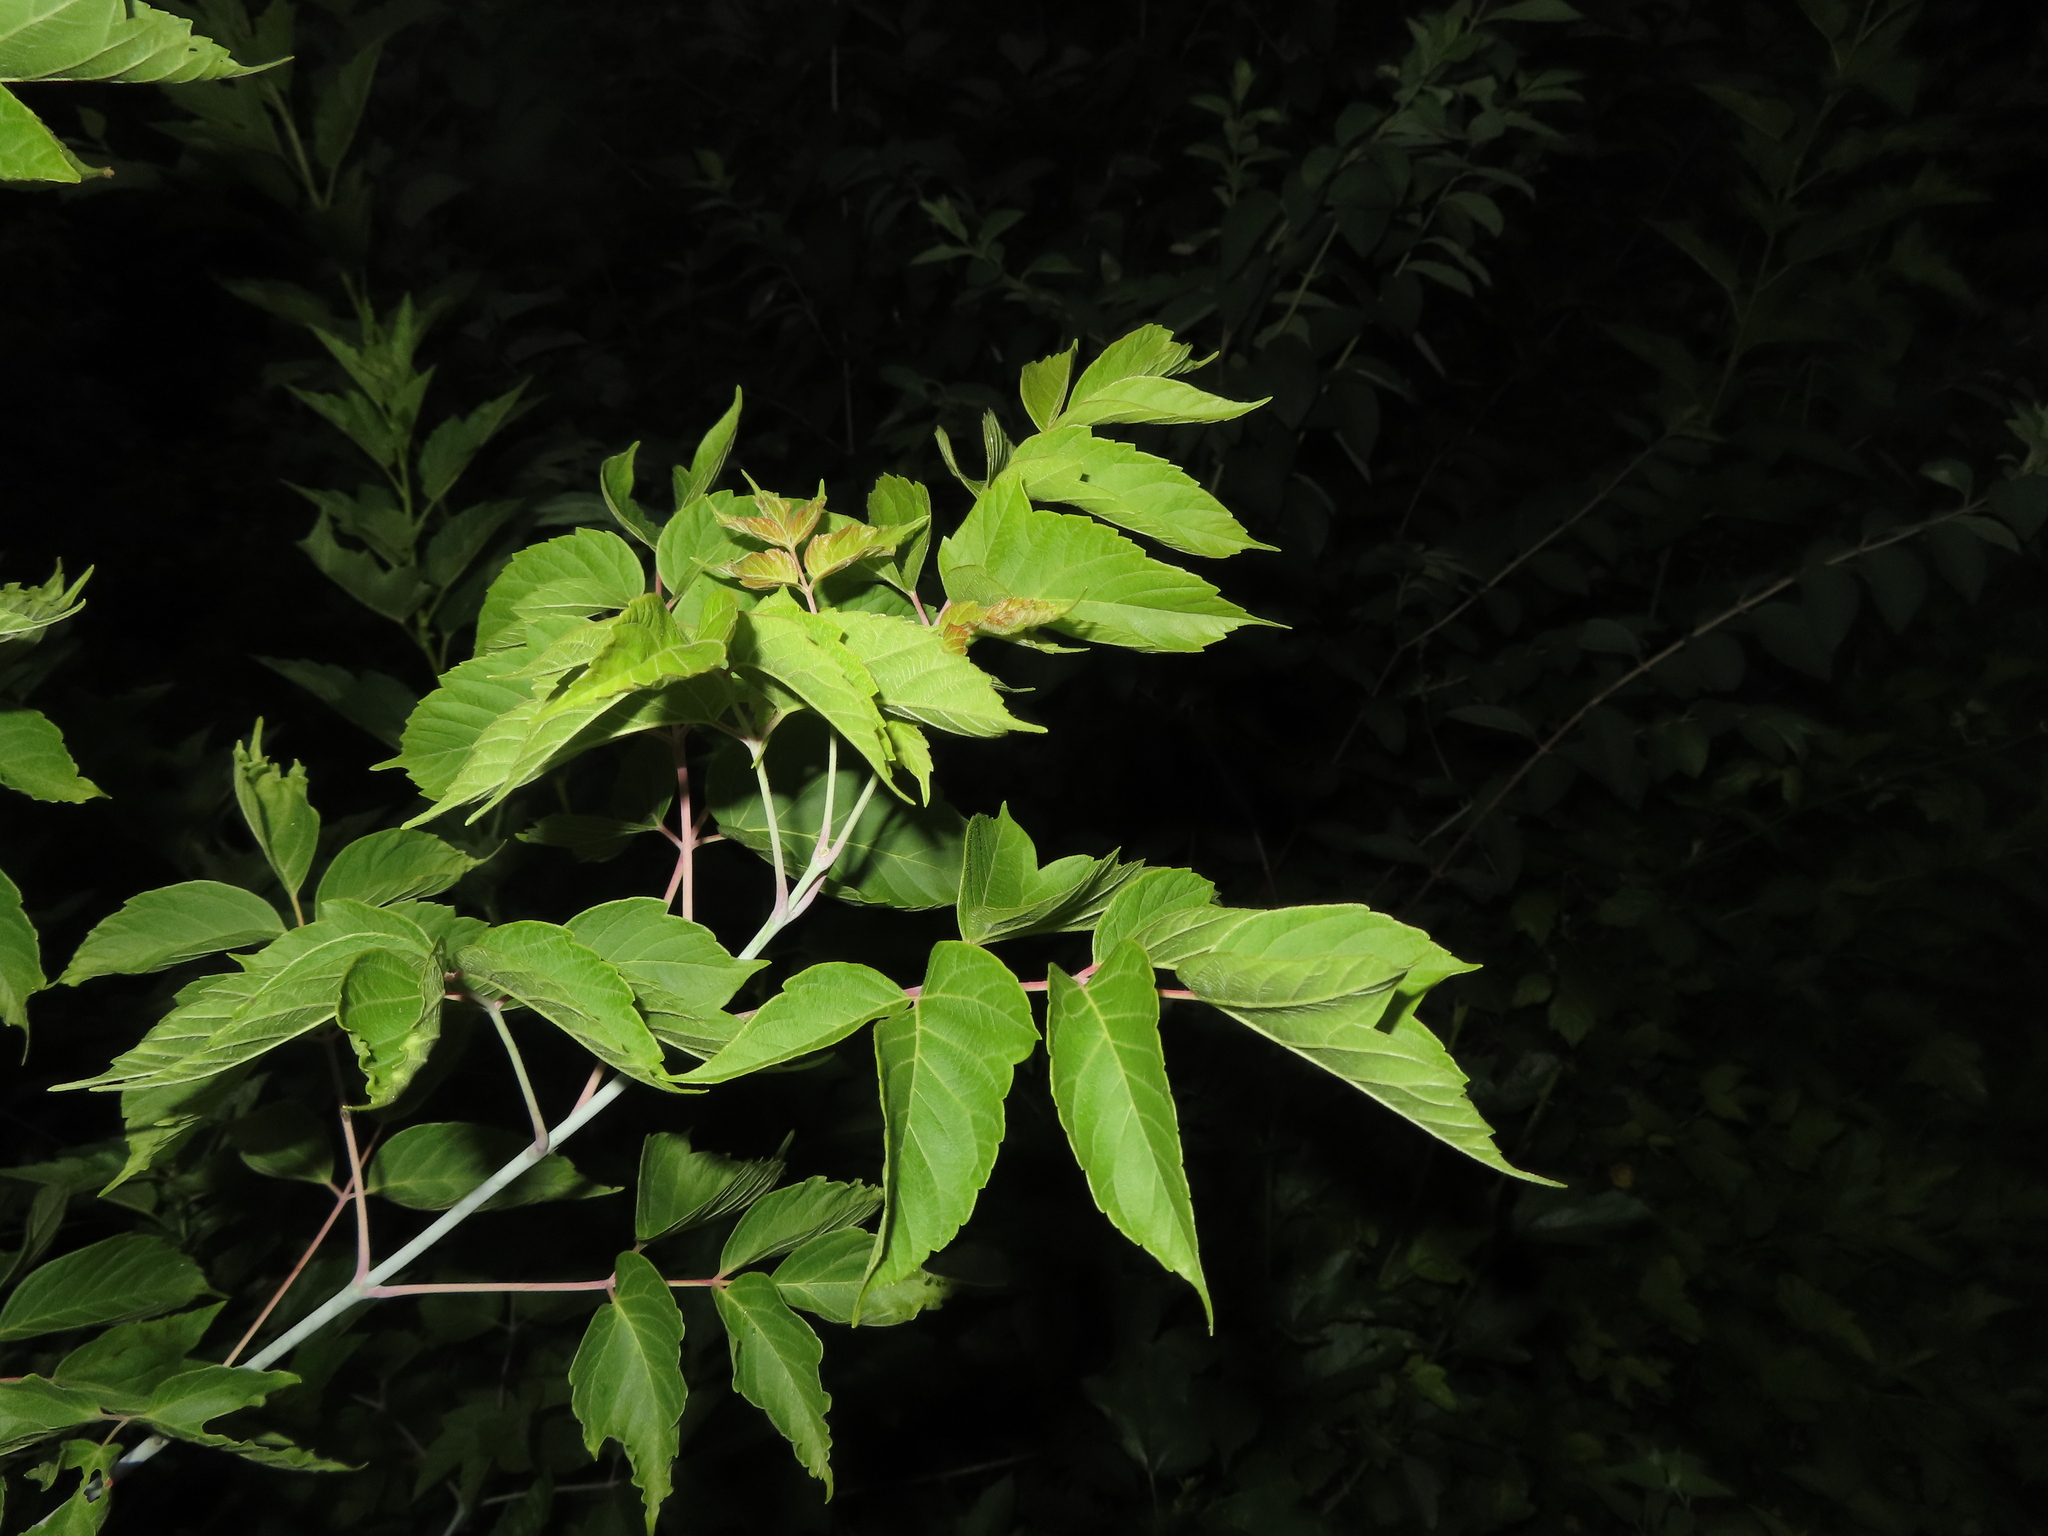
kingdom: Plantae
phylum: Tracheophyta
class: Magnoliopsida
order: Sapindales
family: Sapindaceae
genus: Acer
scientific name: Acer negundo
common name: Ashleaf maple
